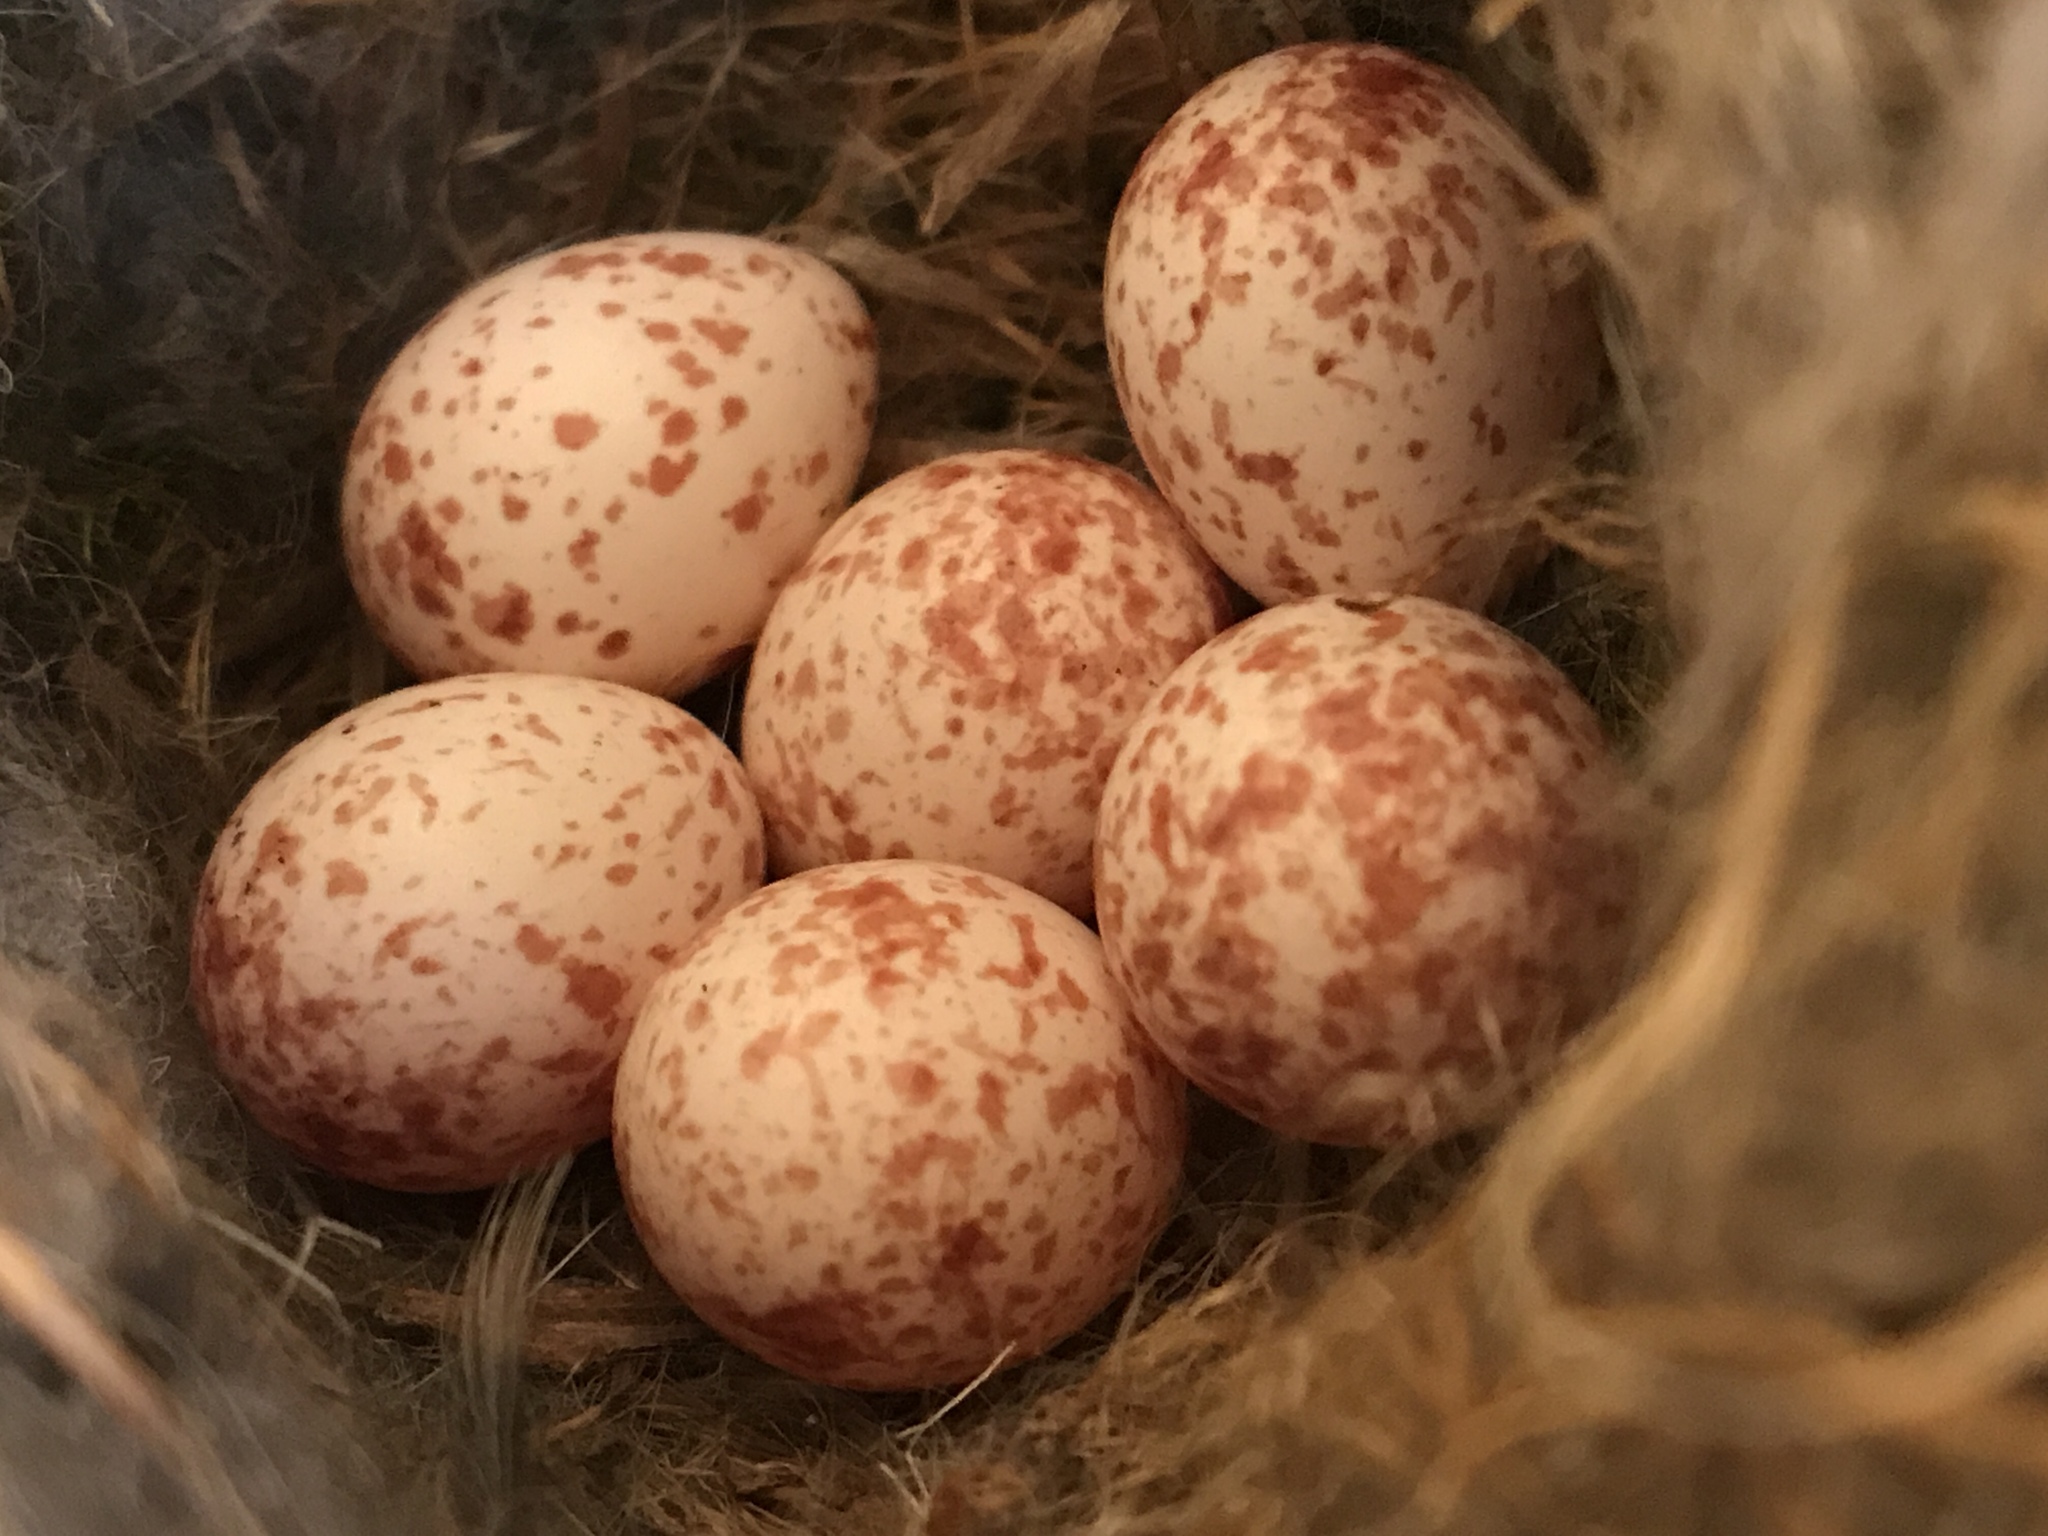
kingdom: Animalia
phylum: Chordata
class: Aves
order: Passeriformes
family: Paridae
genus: Poecile
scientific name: Poecile carolinensis
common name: Carolina chickadee
